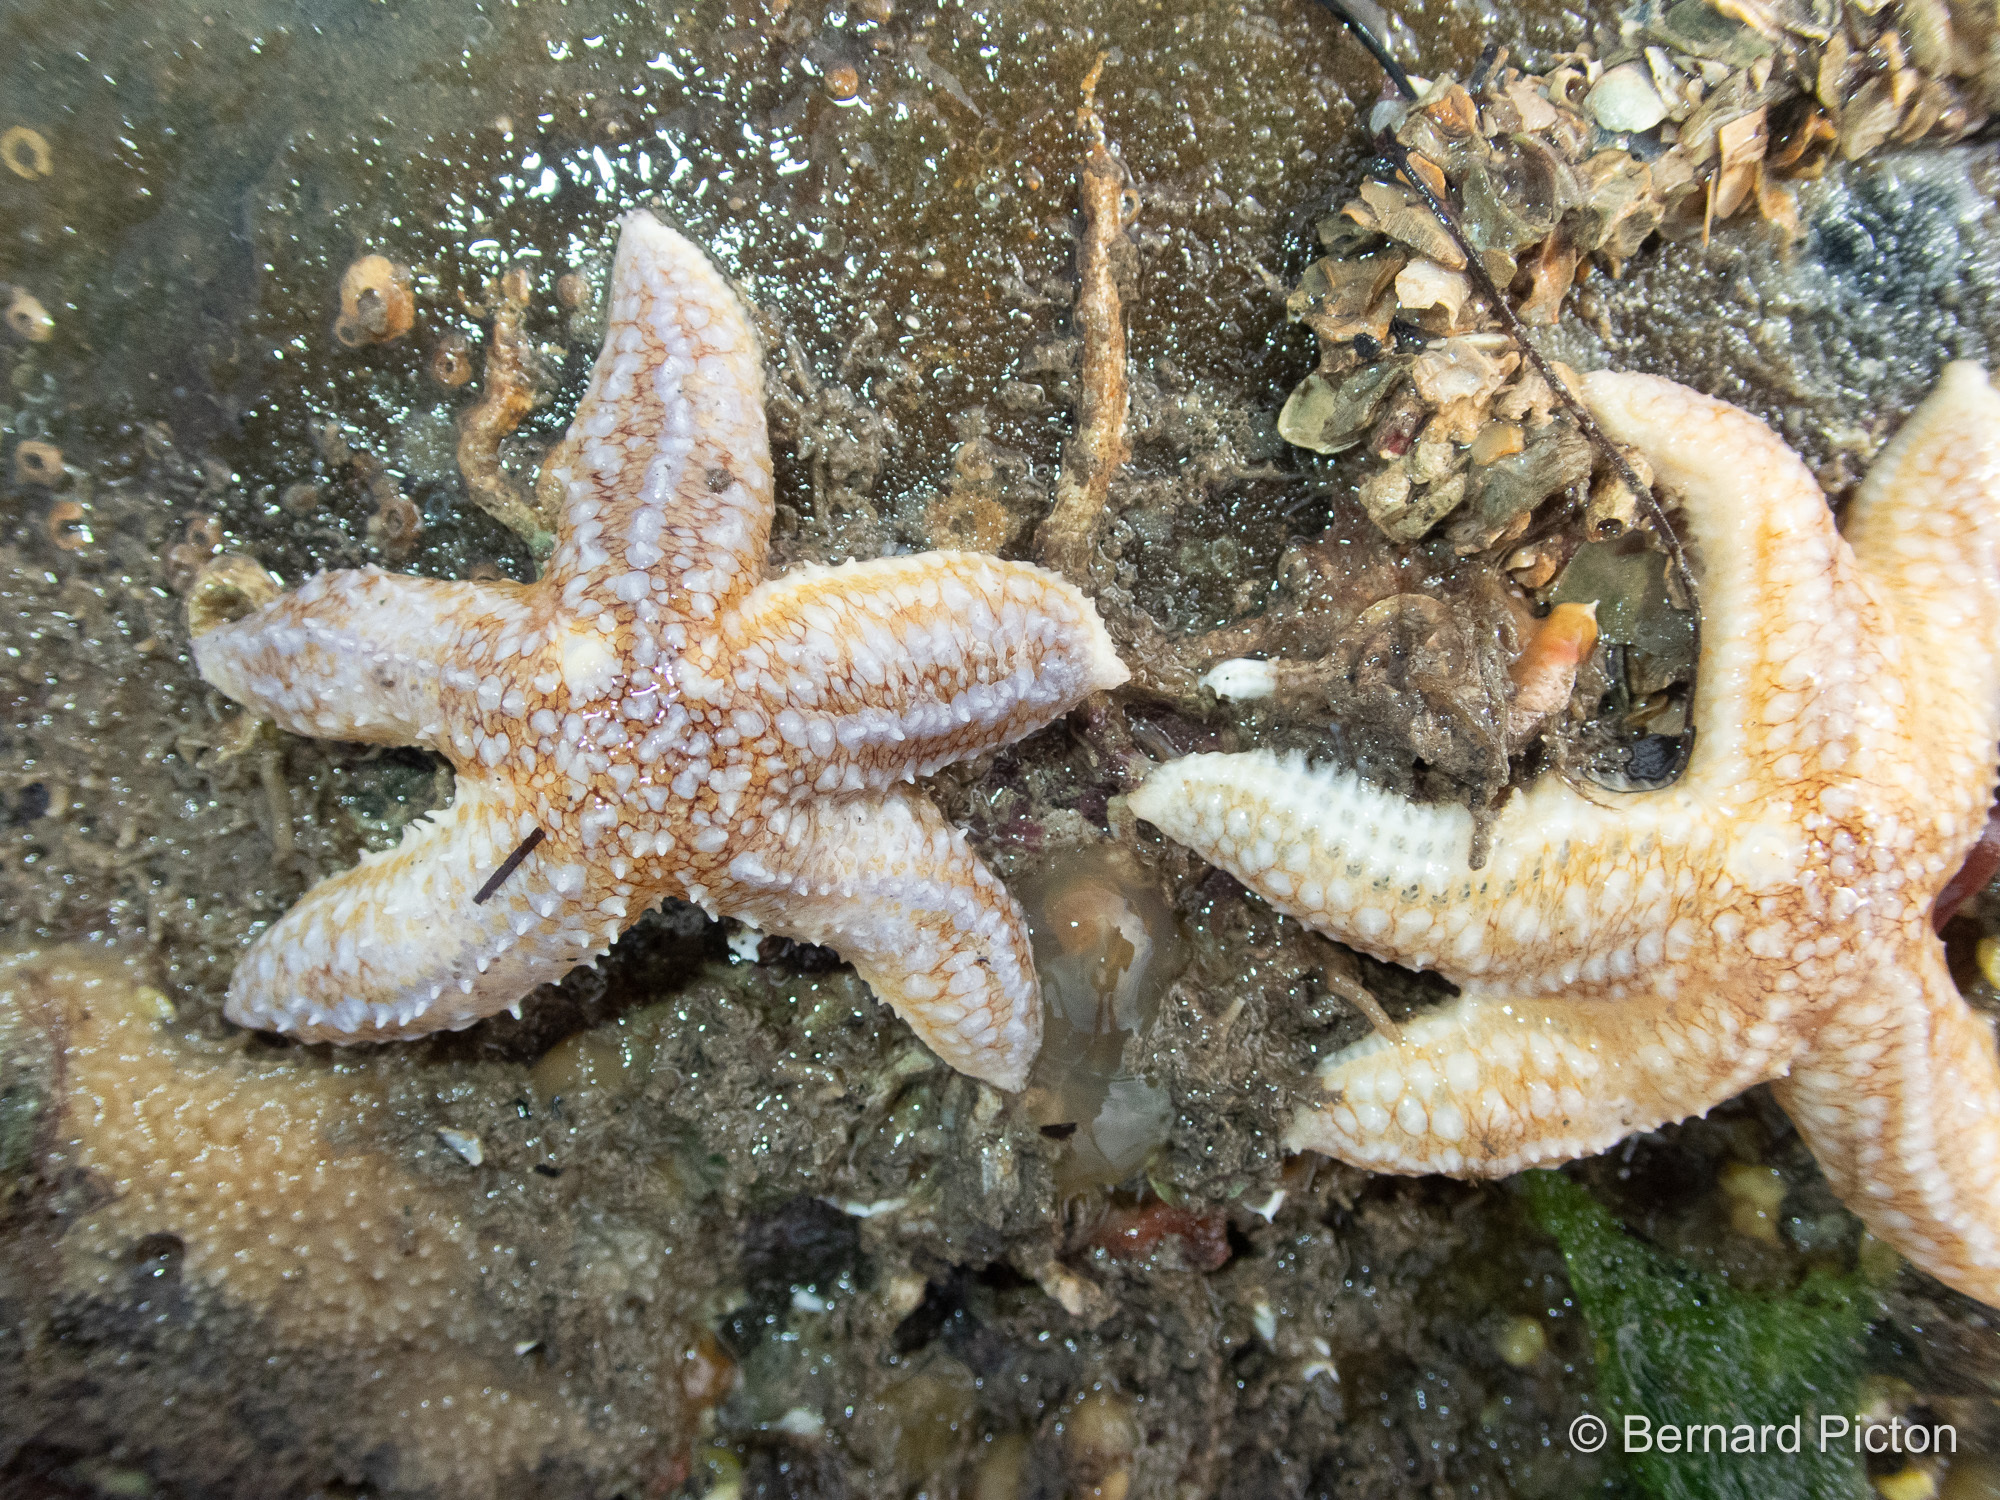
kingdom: Animalia
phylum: Echinodermata
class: Asteroidea
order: Forcipulatida
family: Asteriidae
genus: Asterias
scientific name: Asterias rubens
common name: Common starfish
